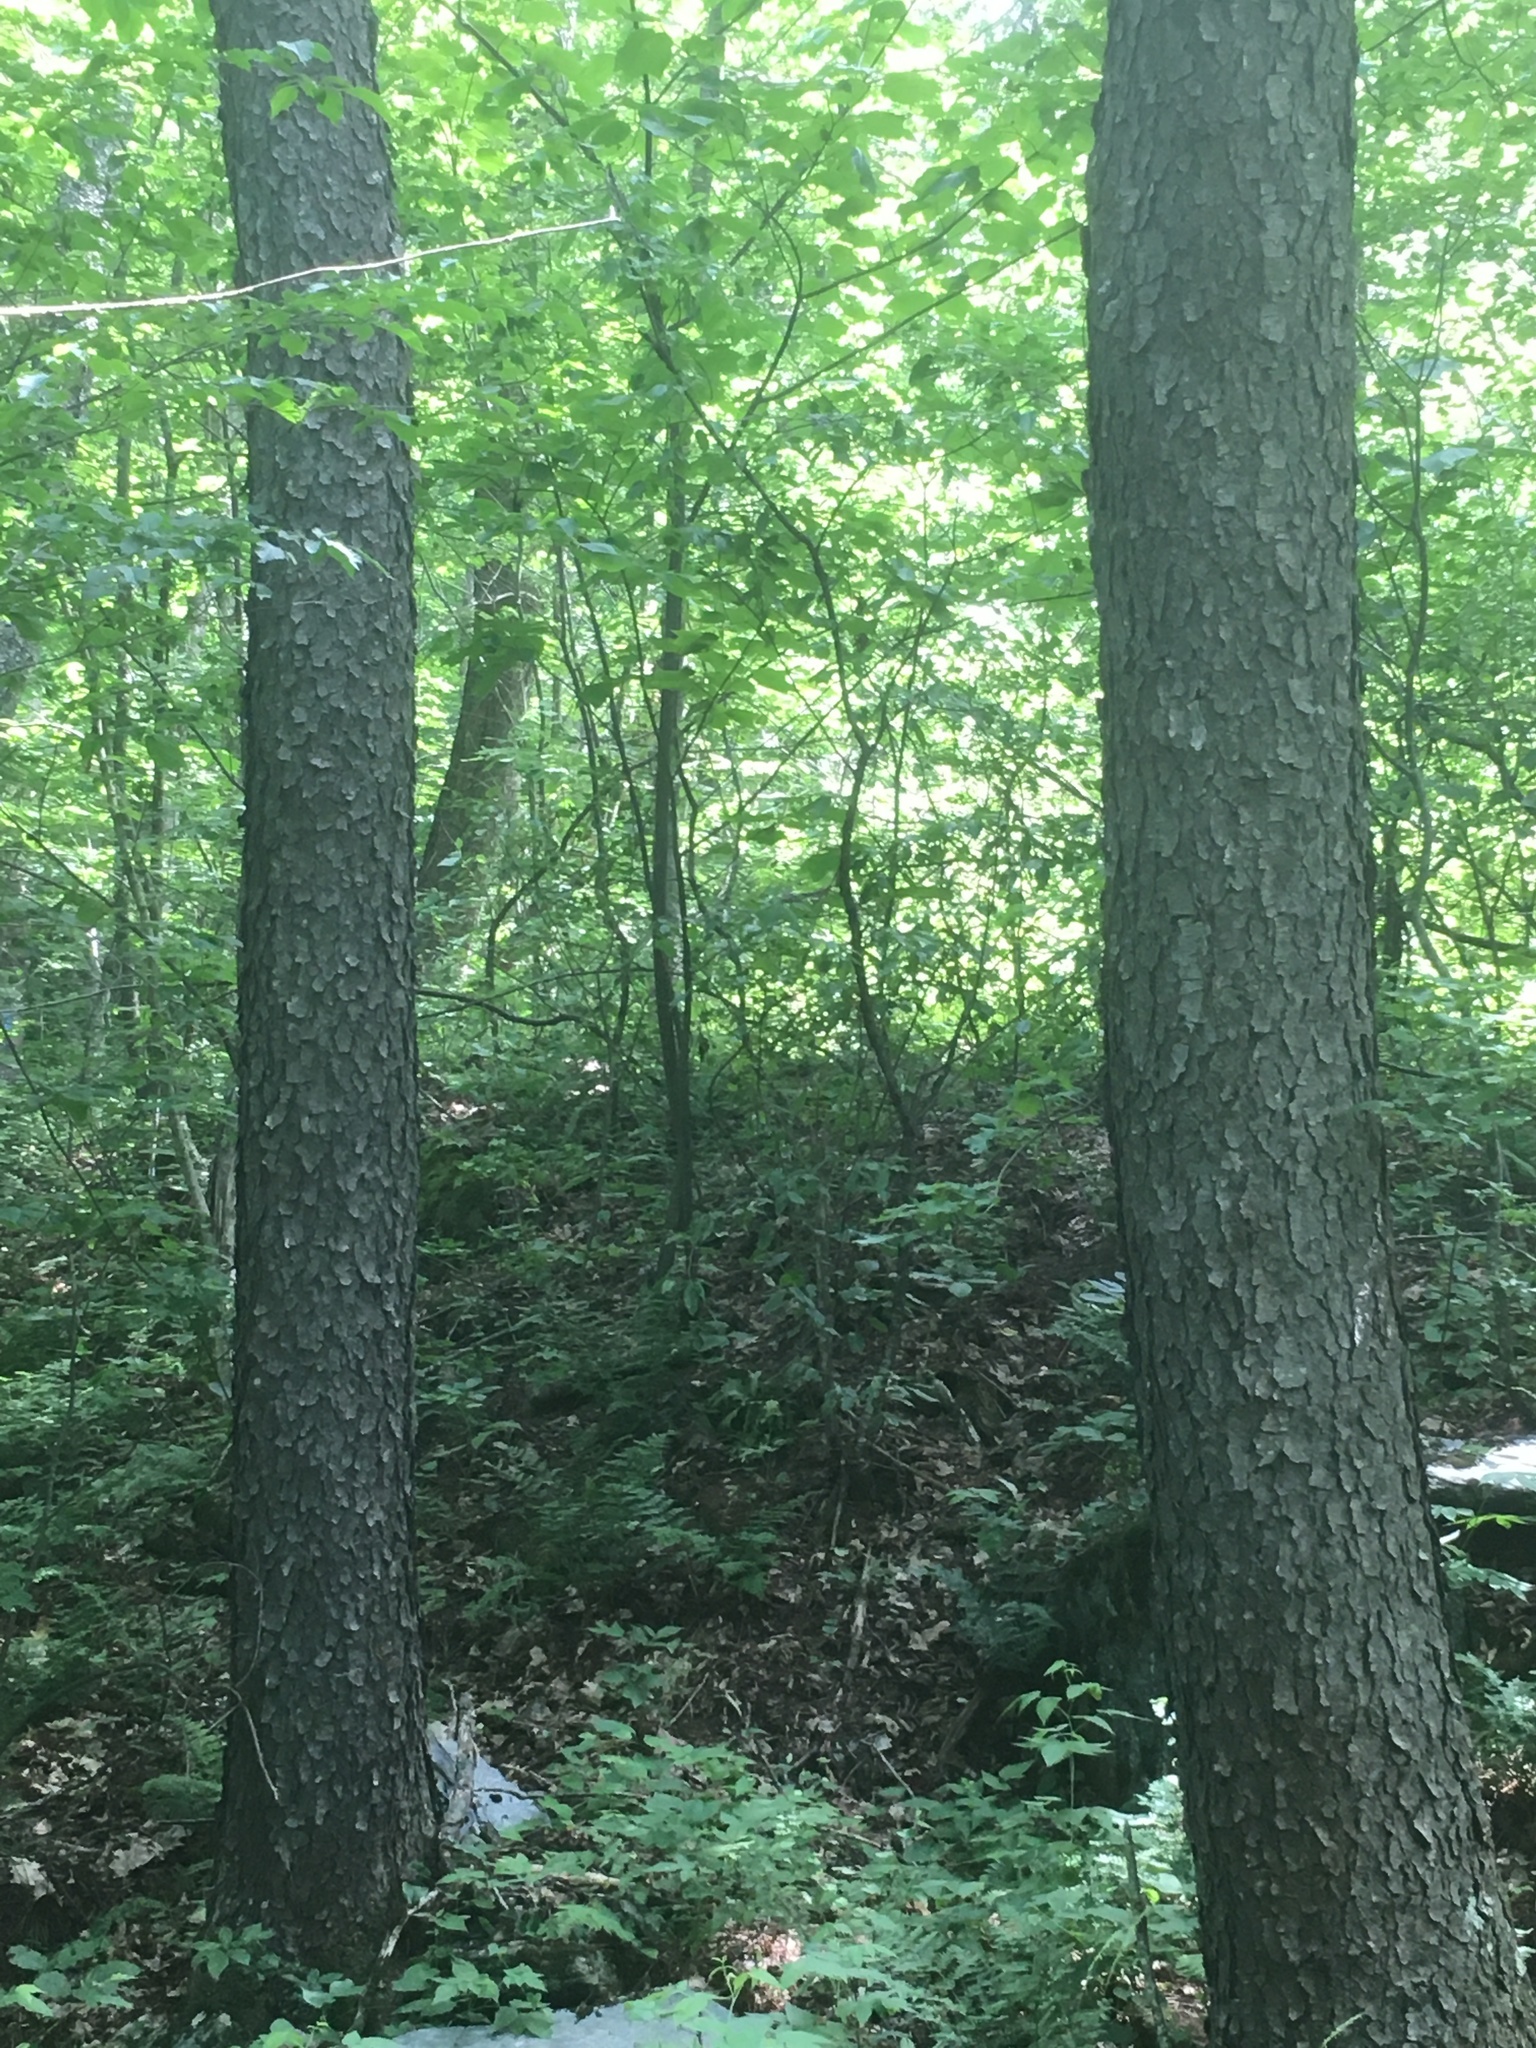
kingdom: Plantae
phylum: Tracheophyta
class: Magnoliopsida
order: Rosales
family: Rosaceae
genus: Prunus
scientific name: Prunus serotina
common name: Black cherry
